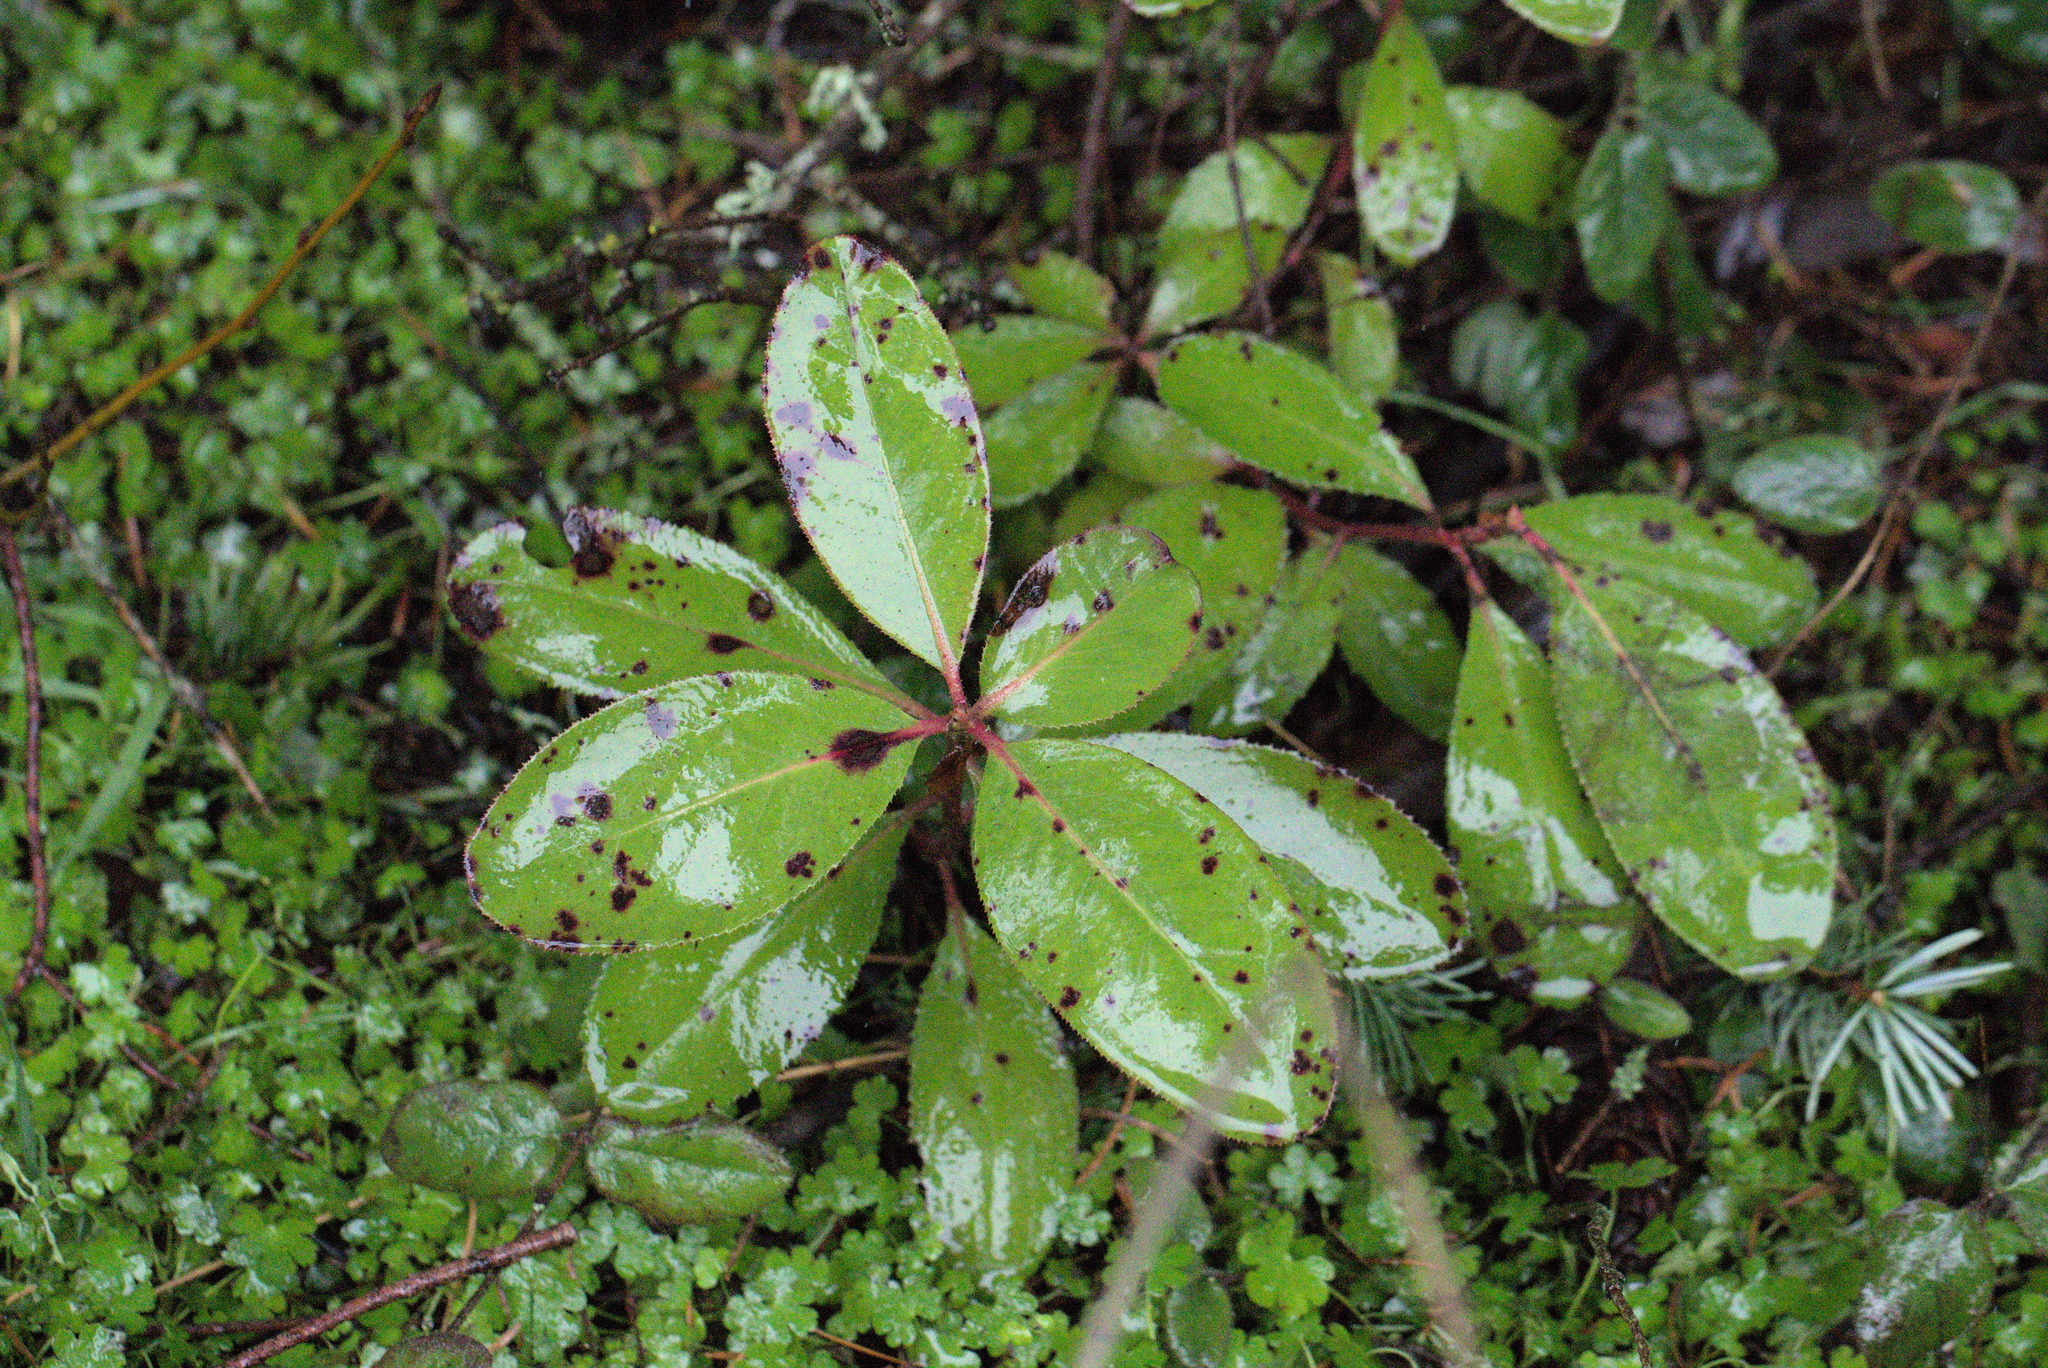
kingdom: Plantae
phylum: Tracheophyta
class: Magnoliopsida
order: Ericales
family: Ericaceae
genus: Arbutus
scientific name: Arbutus menziesii
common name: Pacific madrone
